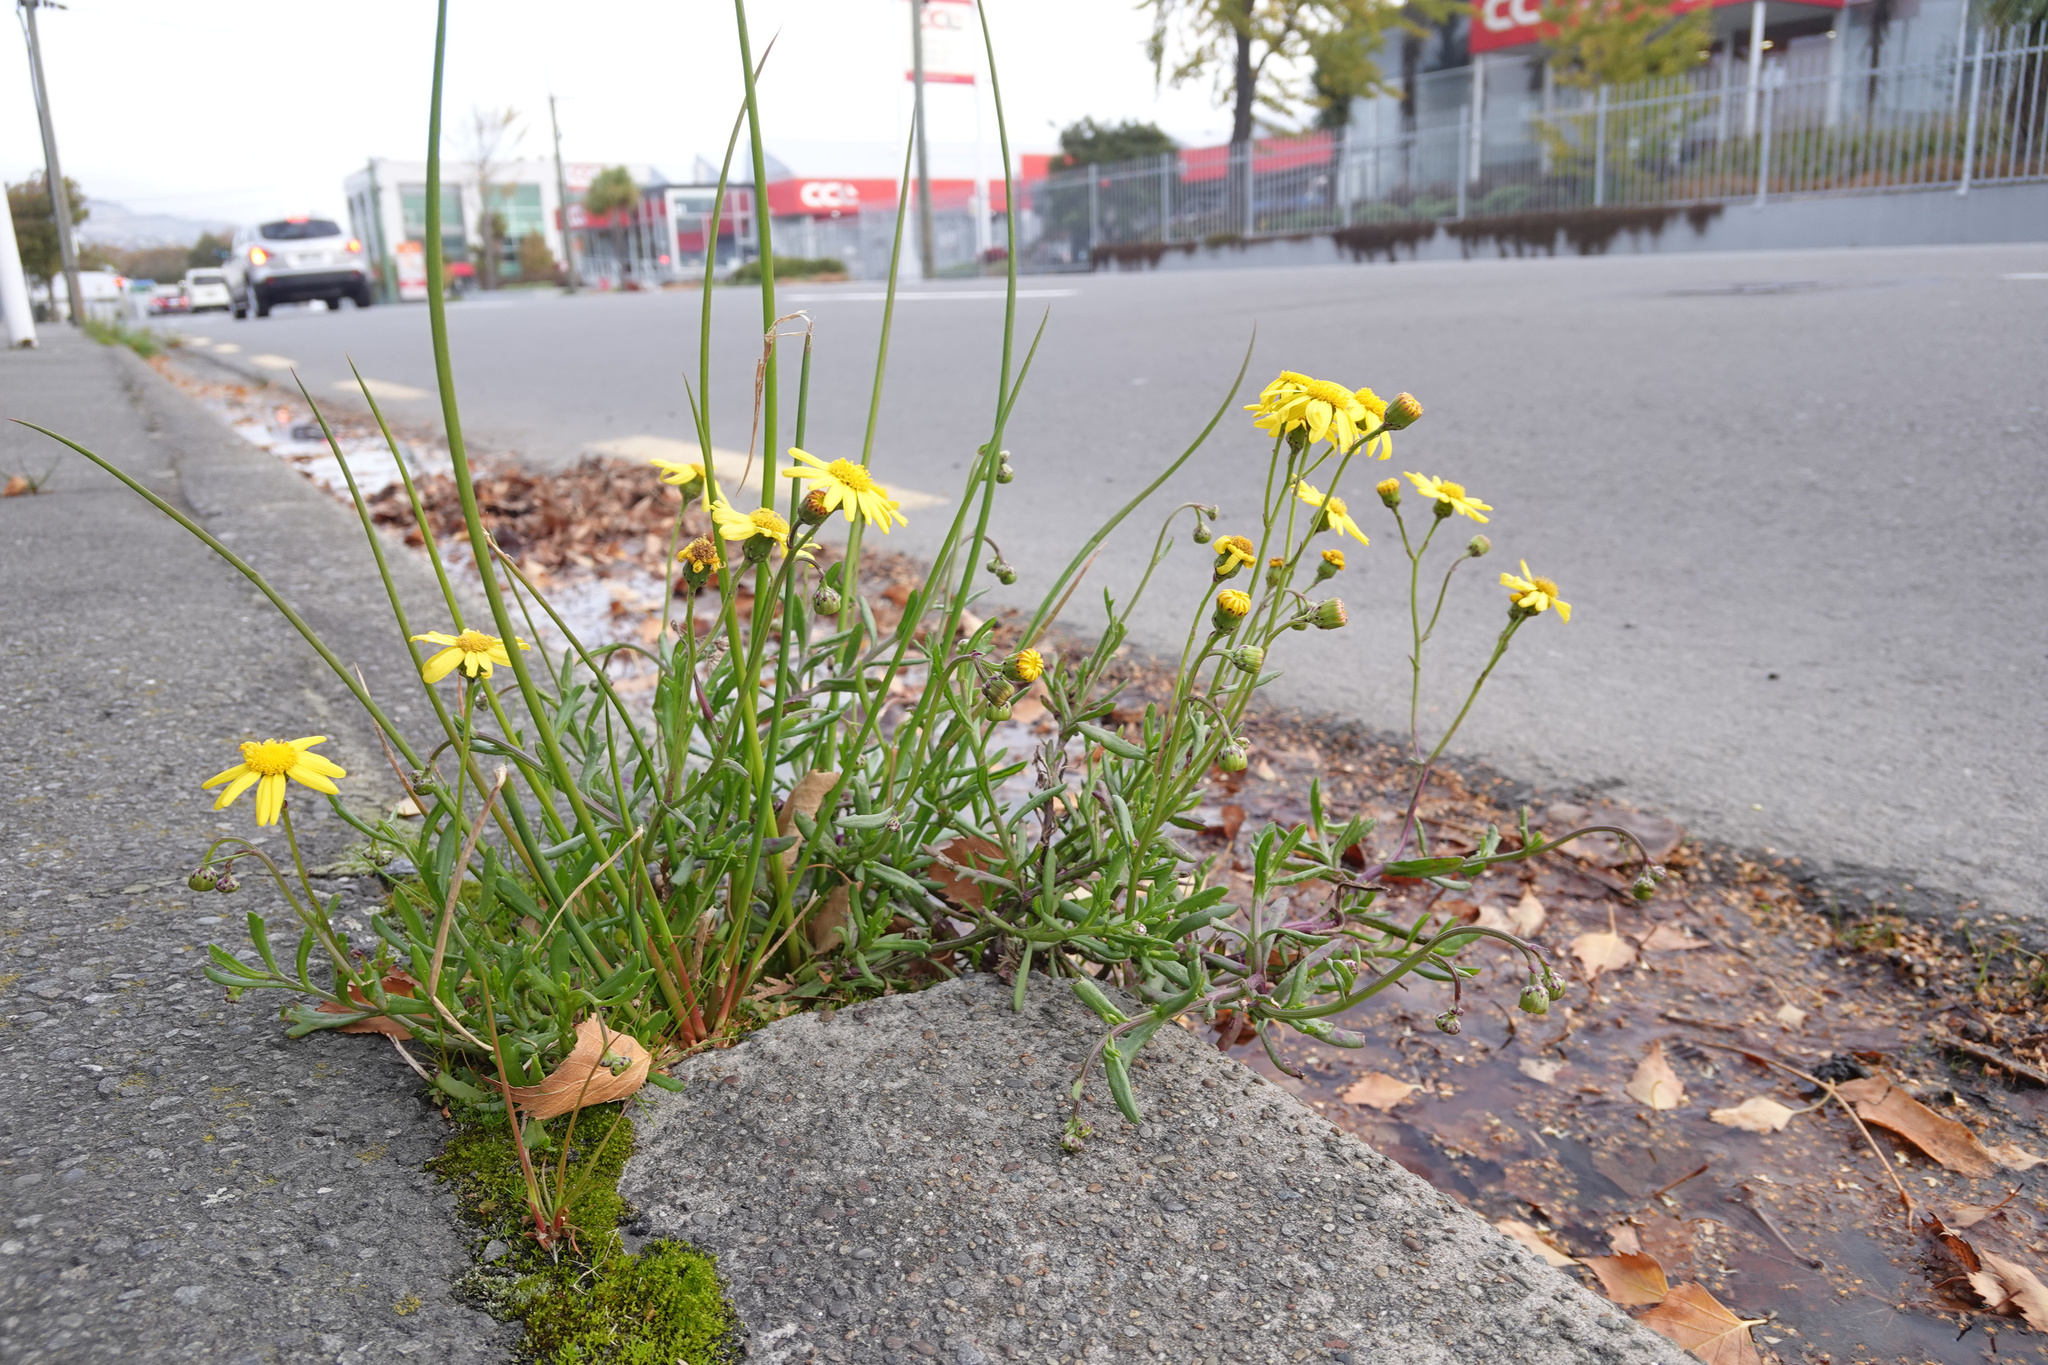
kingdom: Plantae
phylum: Tracheophyta
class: Magnoliopsida
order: Asterales
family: Asteraceae
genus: Senecio
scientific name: Senecio skirrhodon
